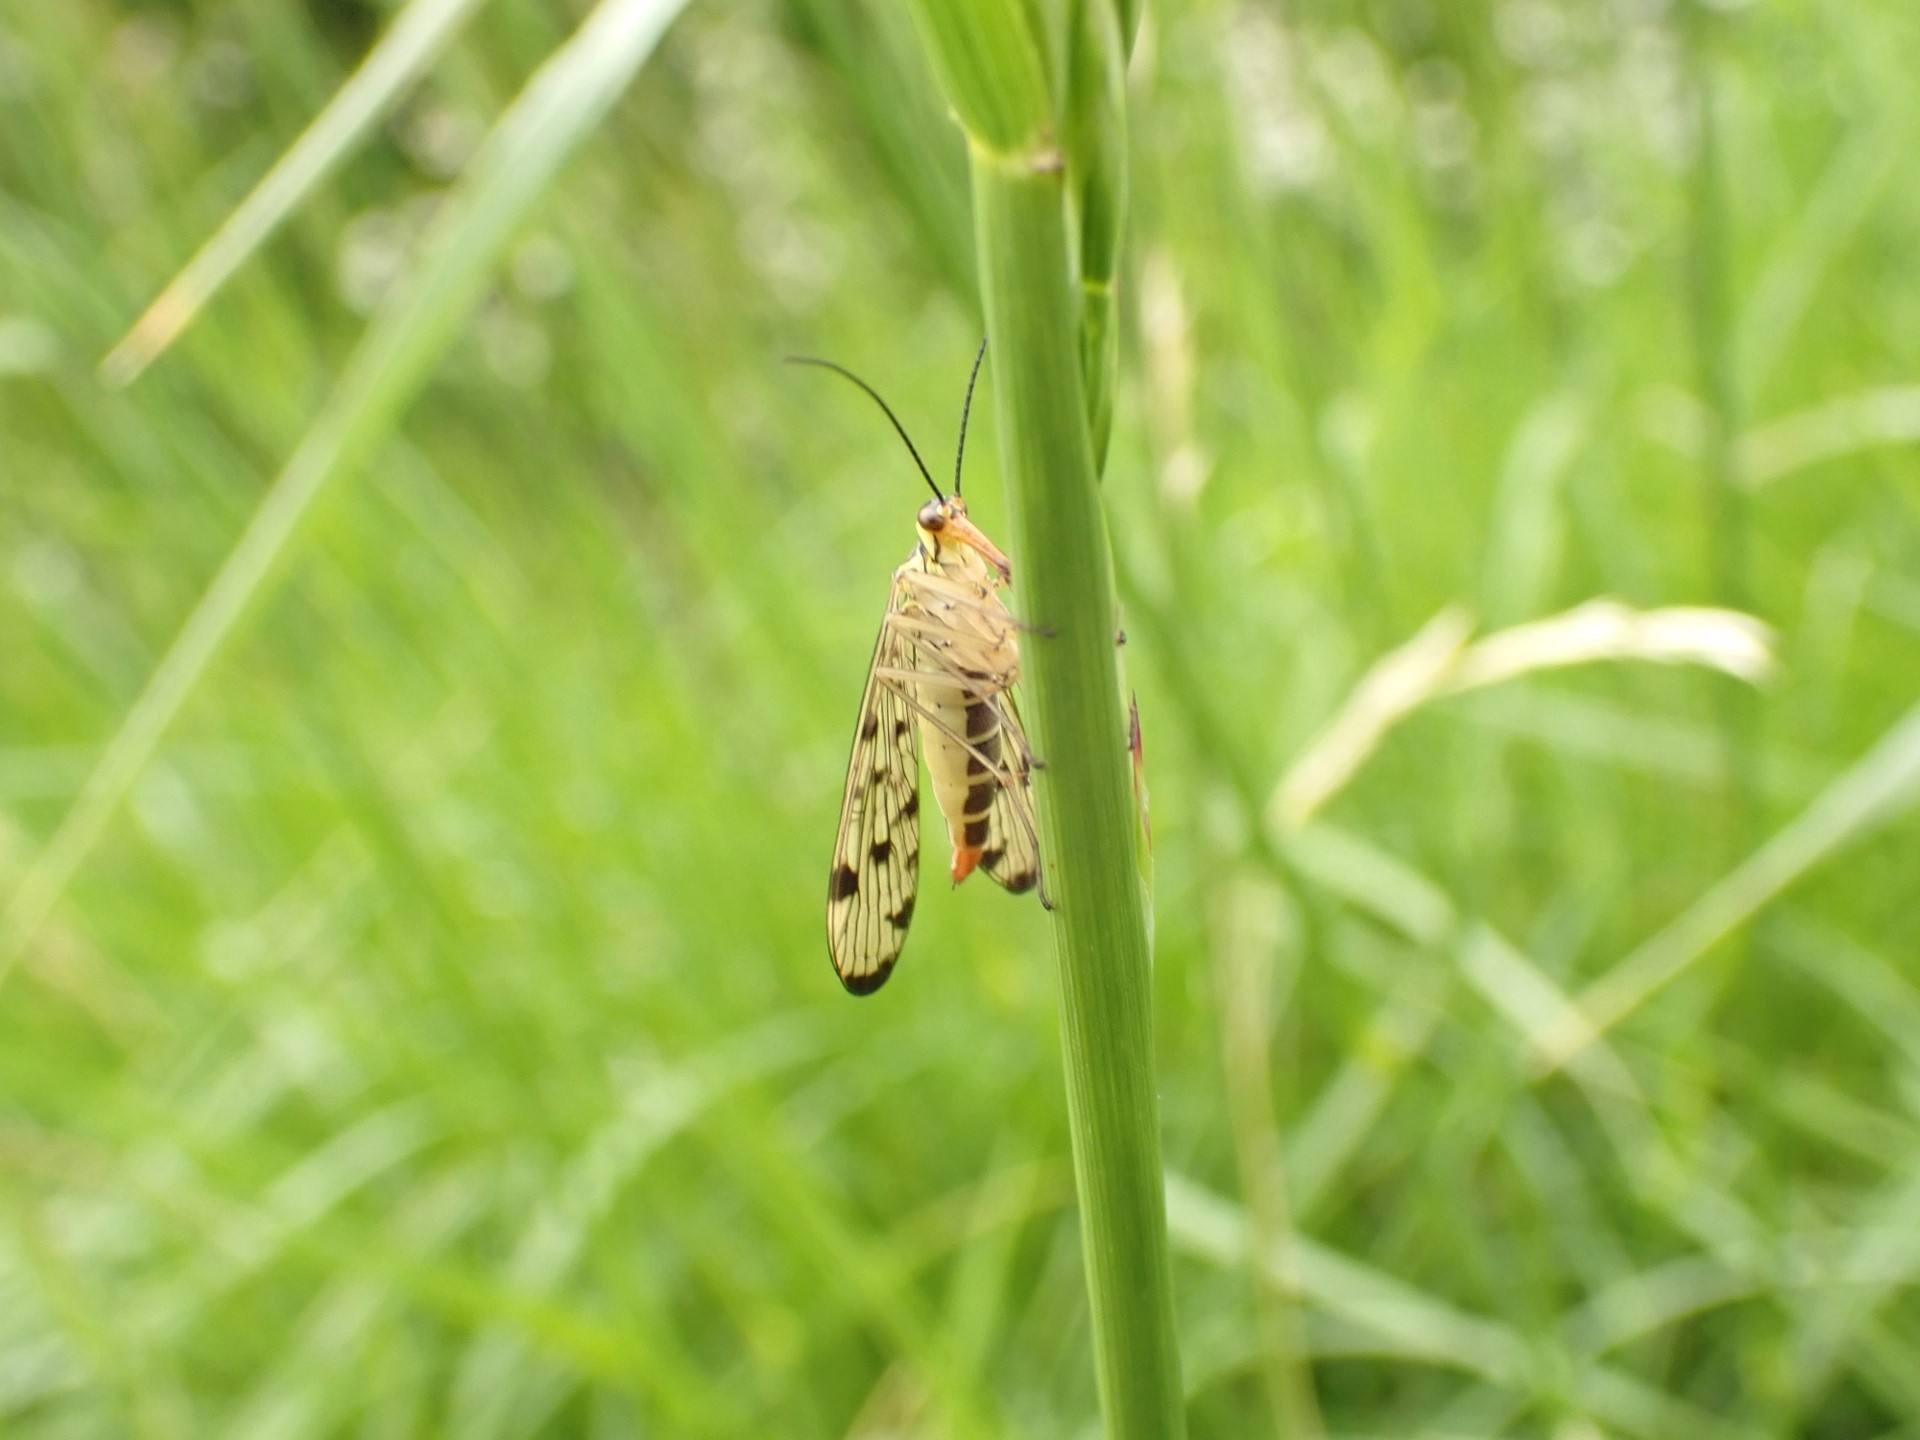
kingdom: Animalia
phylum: Arthropoda
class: Insecta
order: Mecoptera
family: Panorpidae
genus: Panorpa
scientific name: Panorpa germanica
